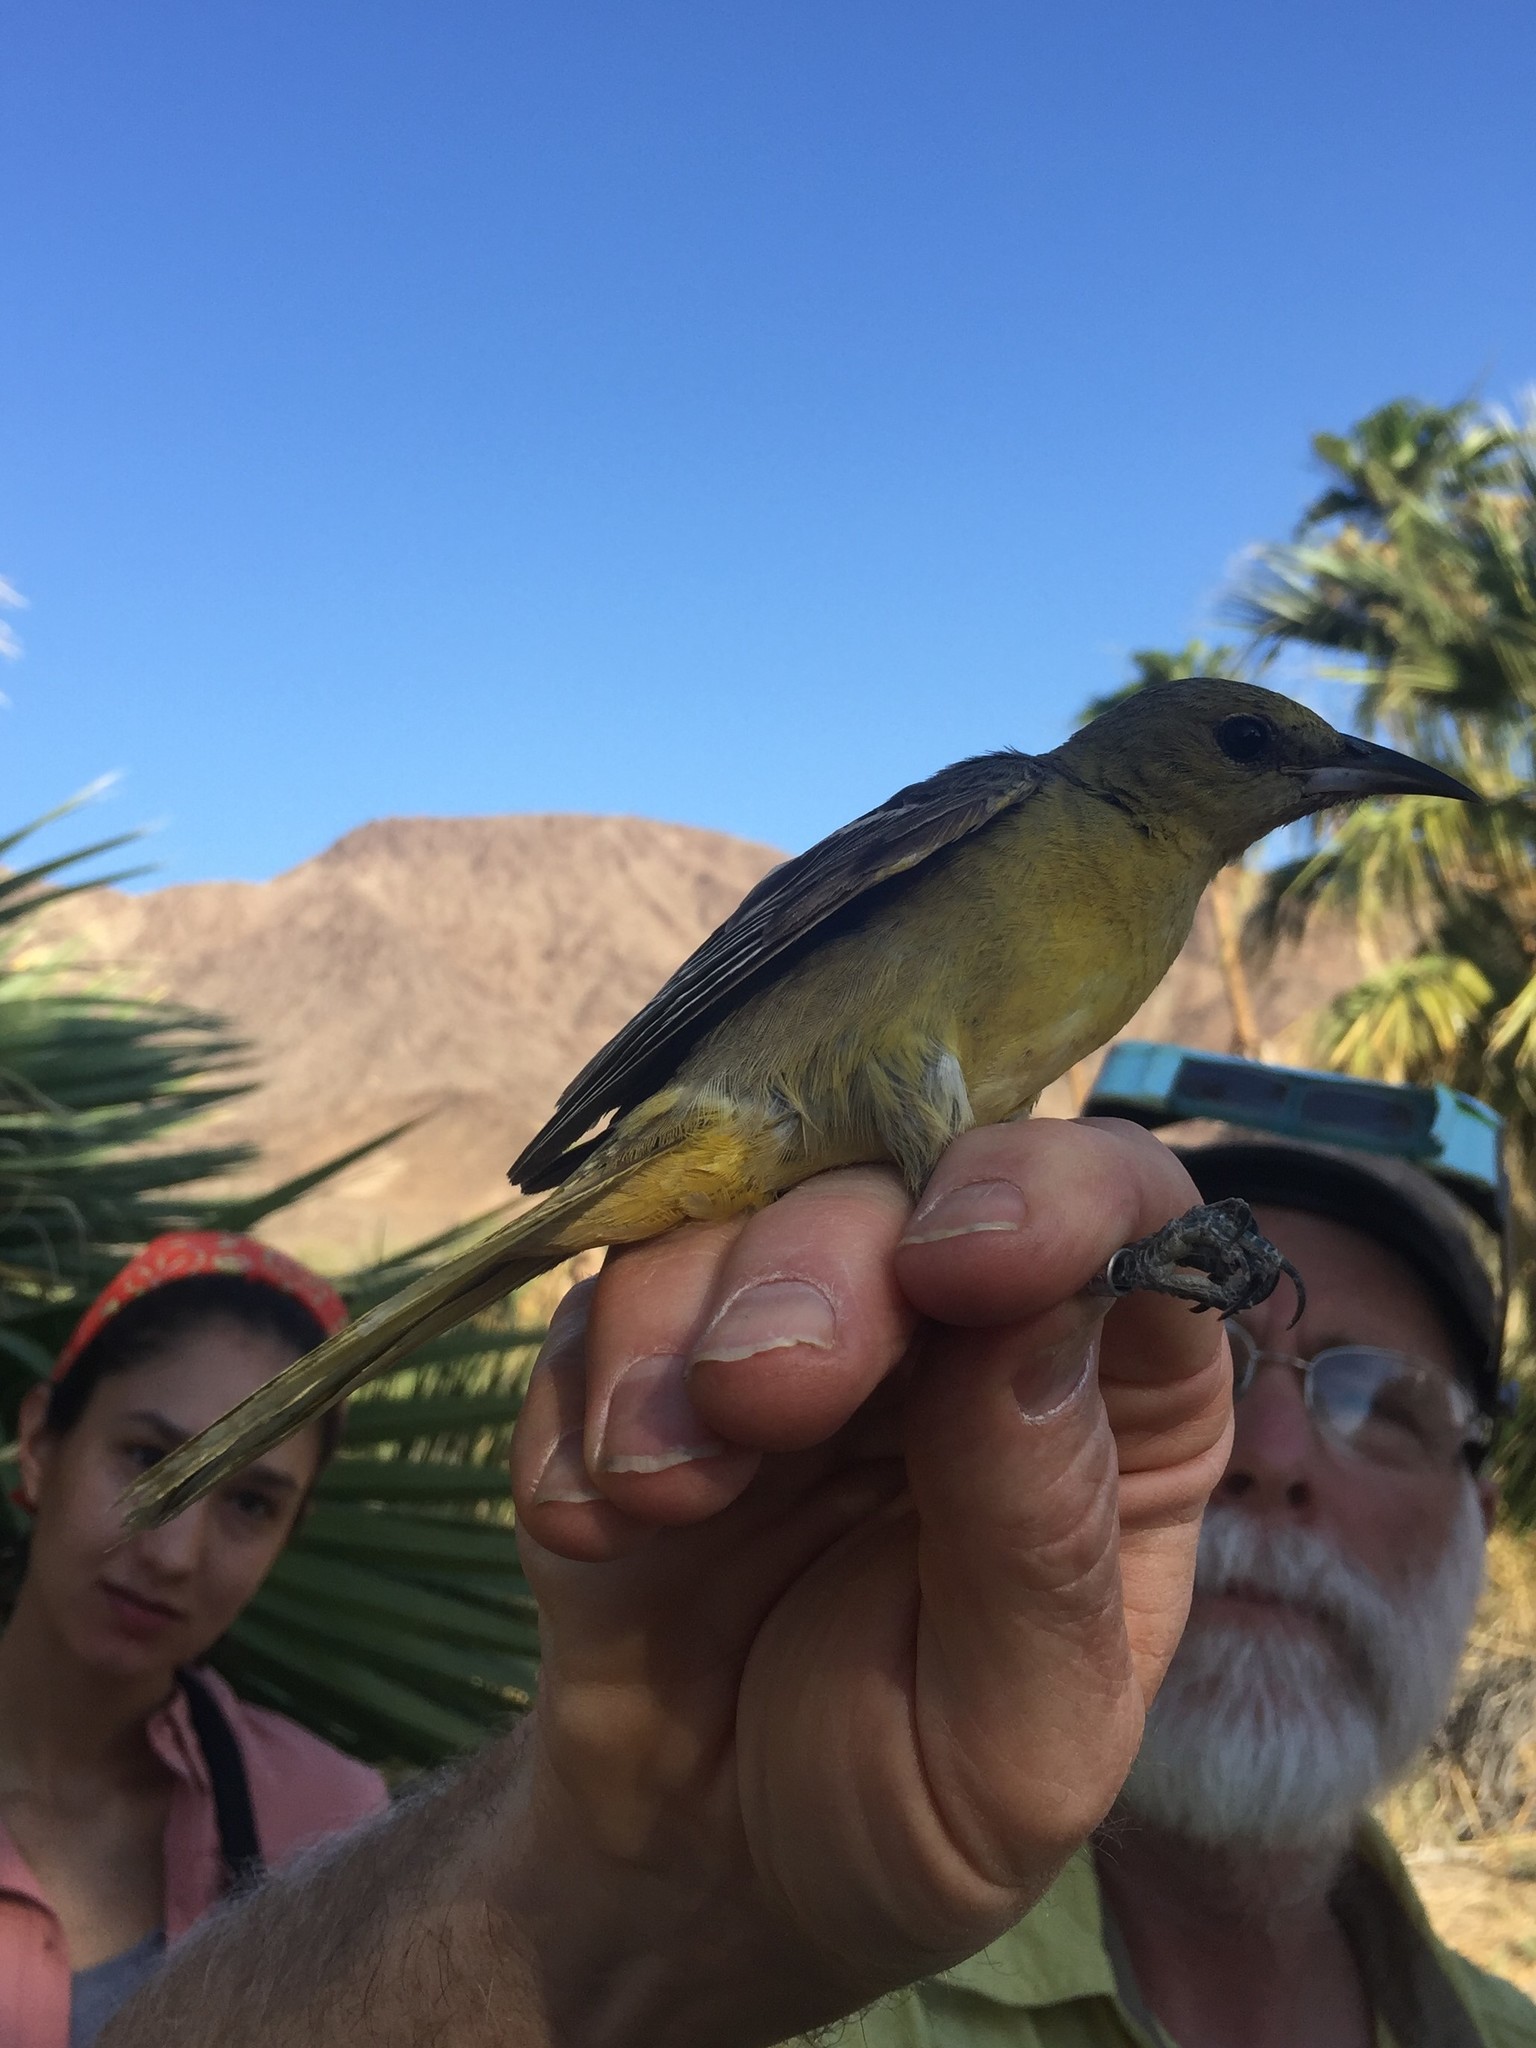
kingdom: Animalia
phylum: Chordata
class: Aves
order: Passeriformes
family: Icteridae
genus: Icterus
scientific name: Icterus cucullatus
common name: Hooded oriole
